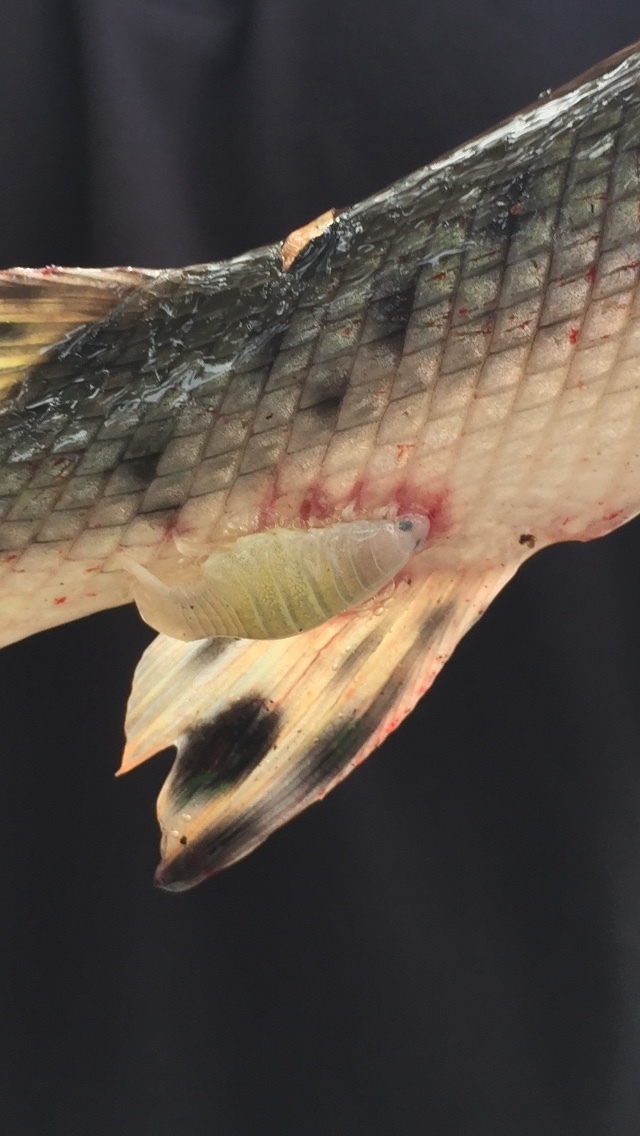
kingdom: Animalia
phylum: Arthropoda
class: Malacostraca
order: Isopoda
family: Cymothoidae
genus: Anilocra
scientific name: Anilocra acuta
